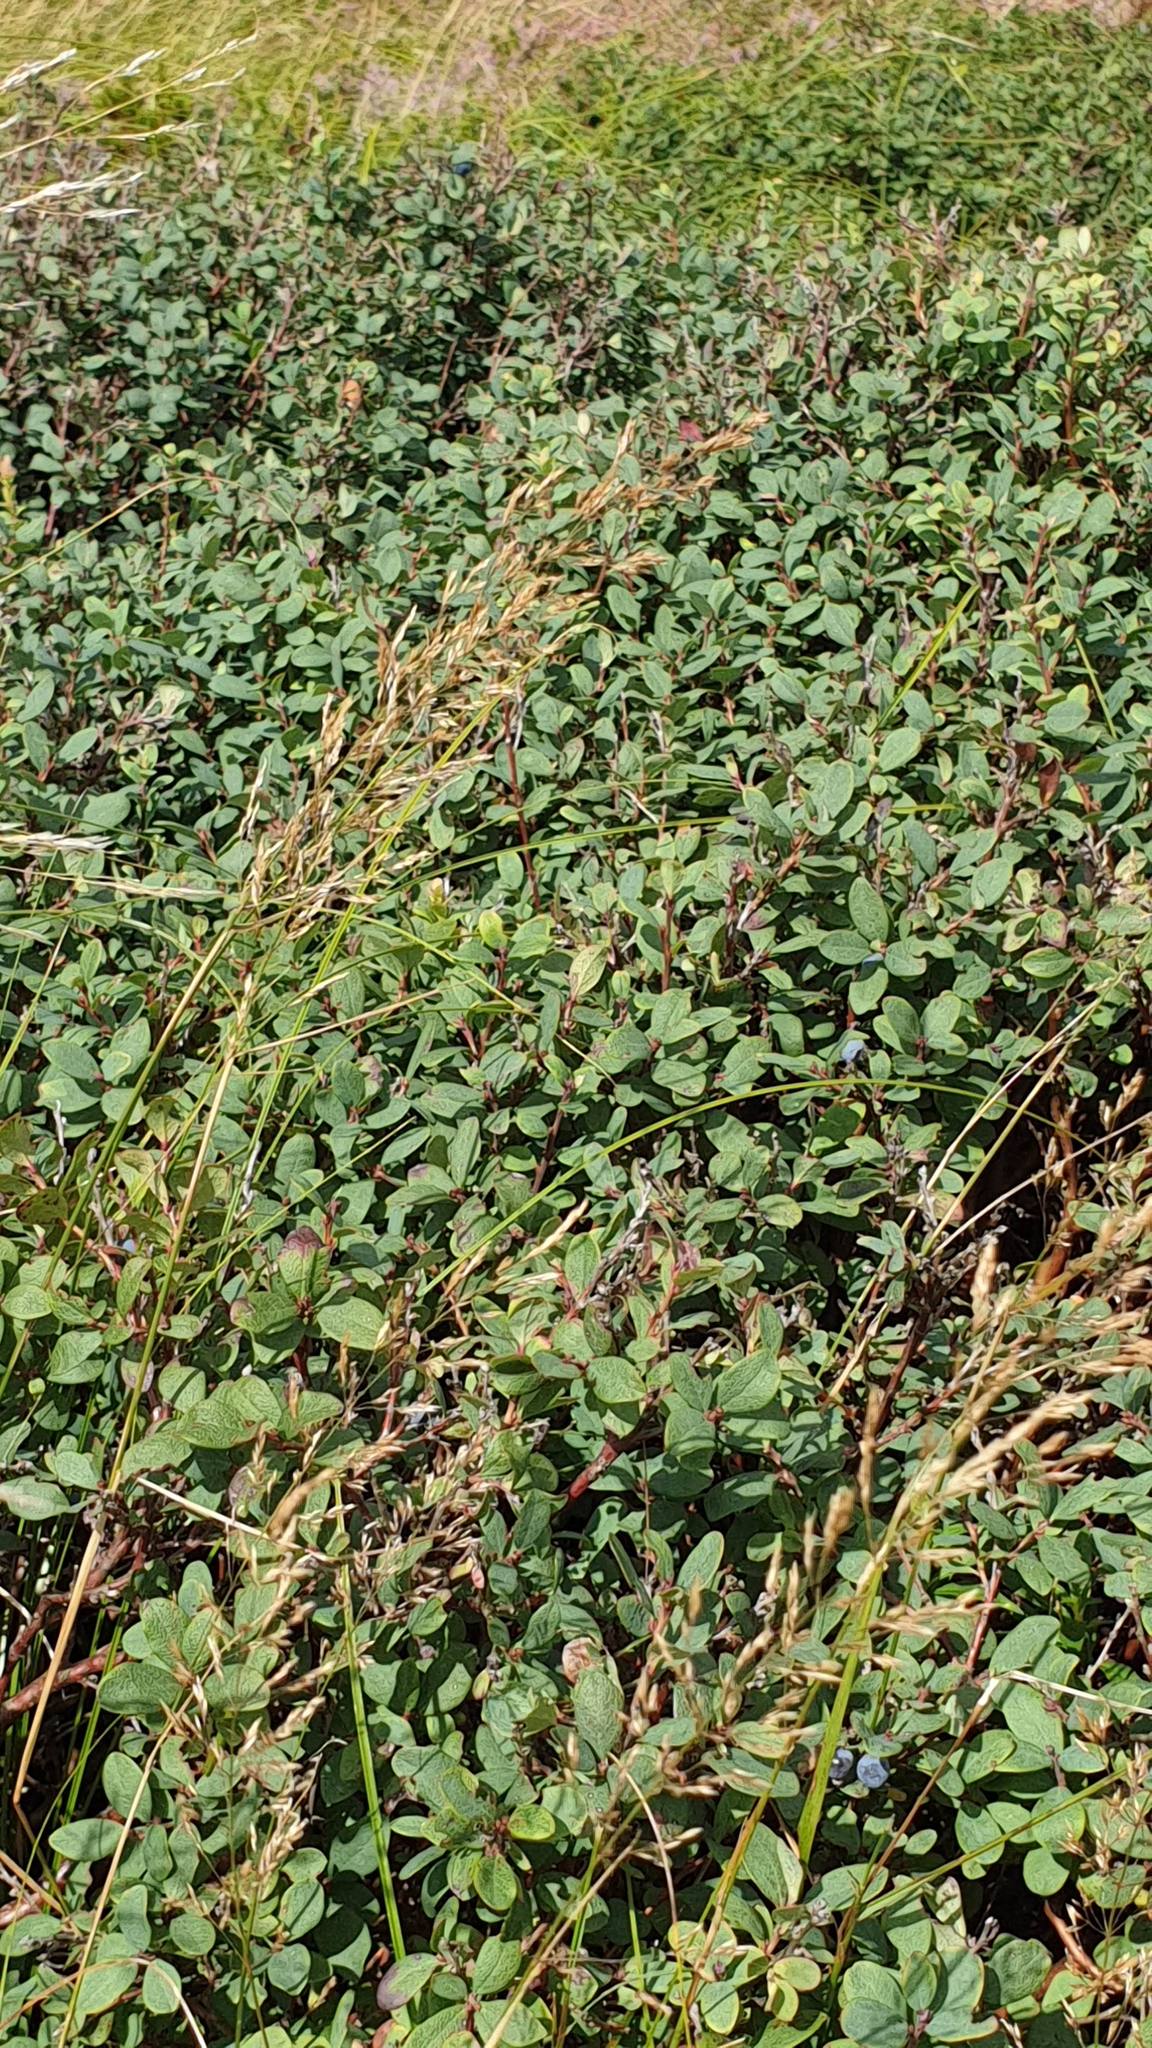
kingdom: Plantae
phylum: Tracheophyta
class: Magnoliopsida
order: Ericales
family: Ericaceae
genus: Vaccinium
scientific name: Vaccinium uliginosum
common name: Bog bilberry
